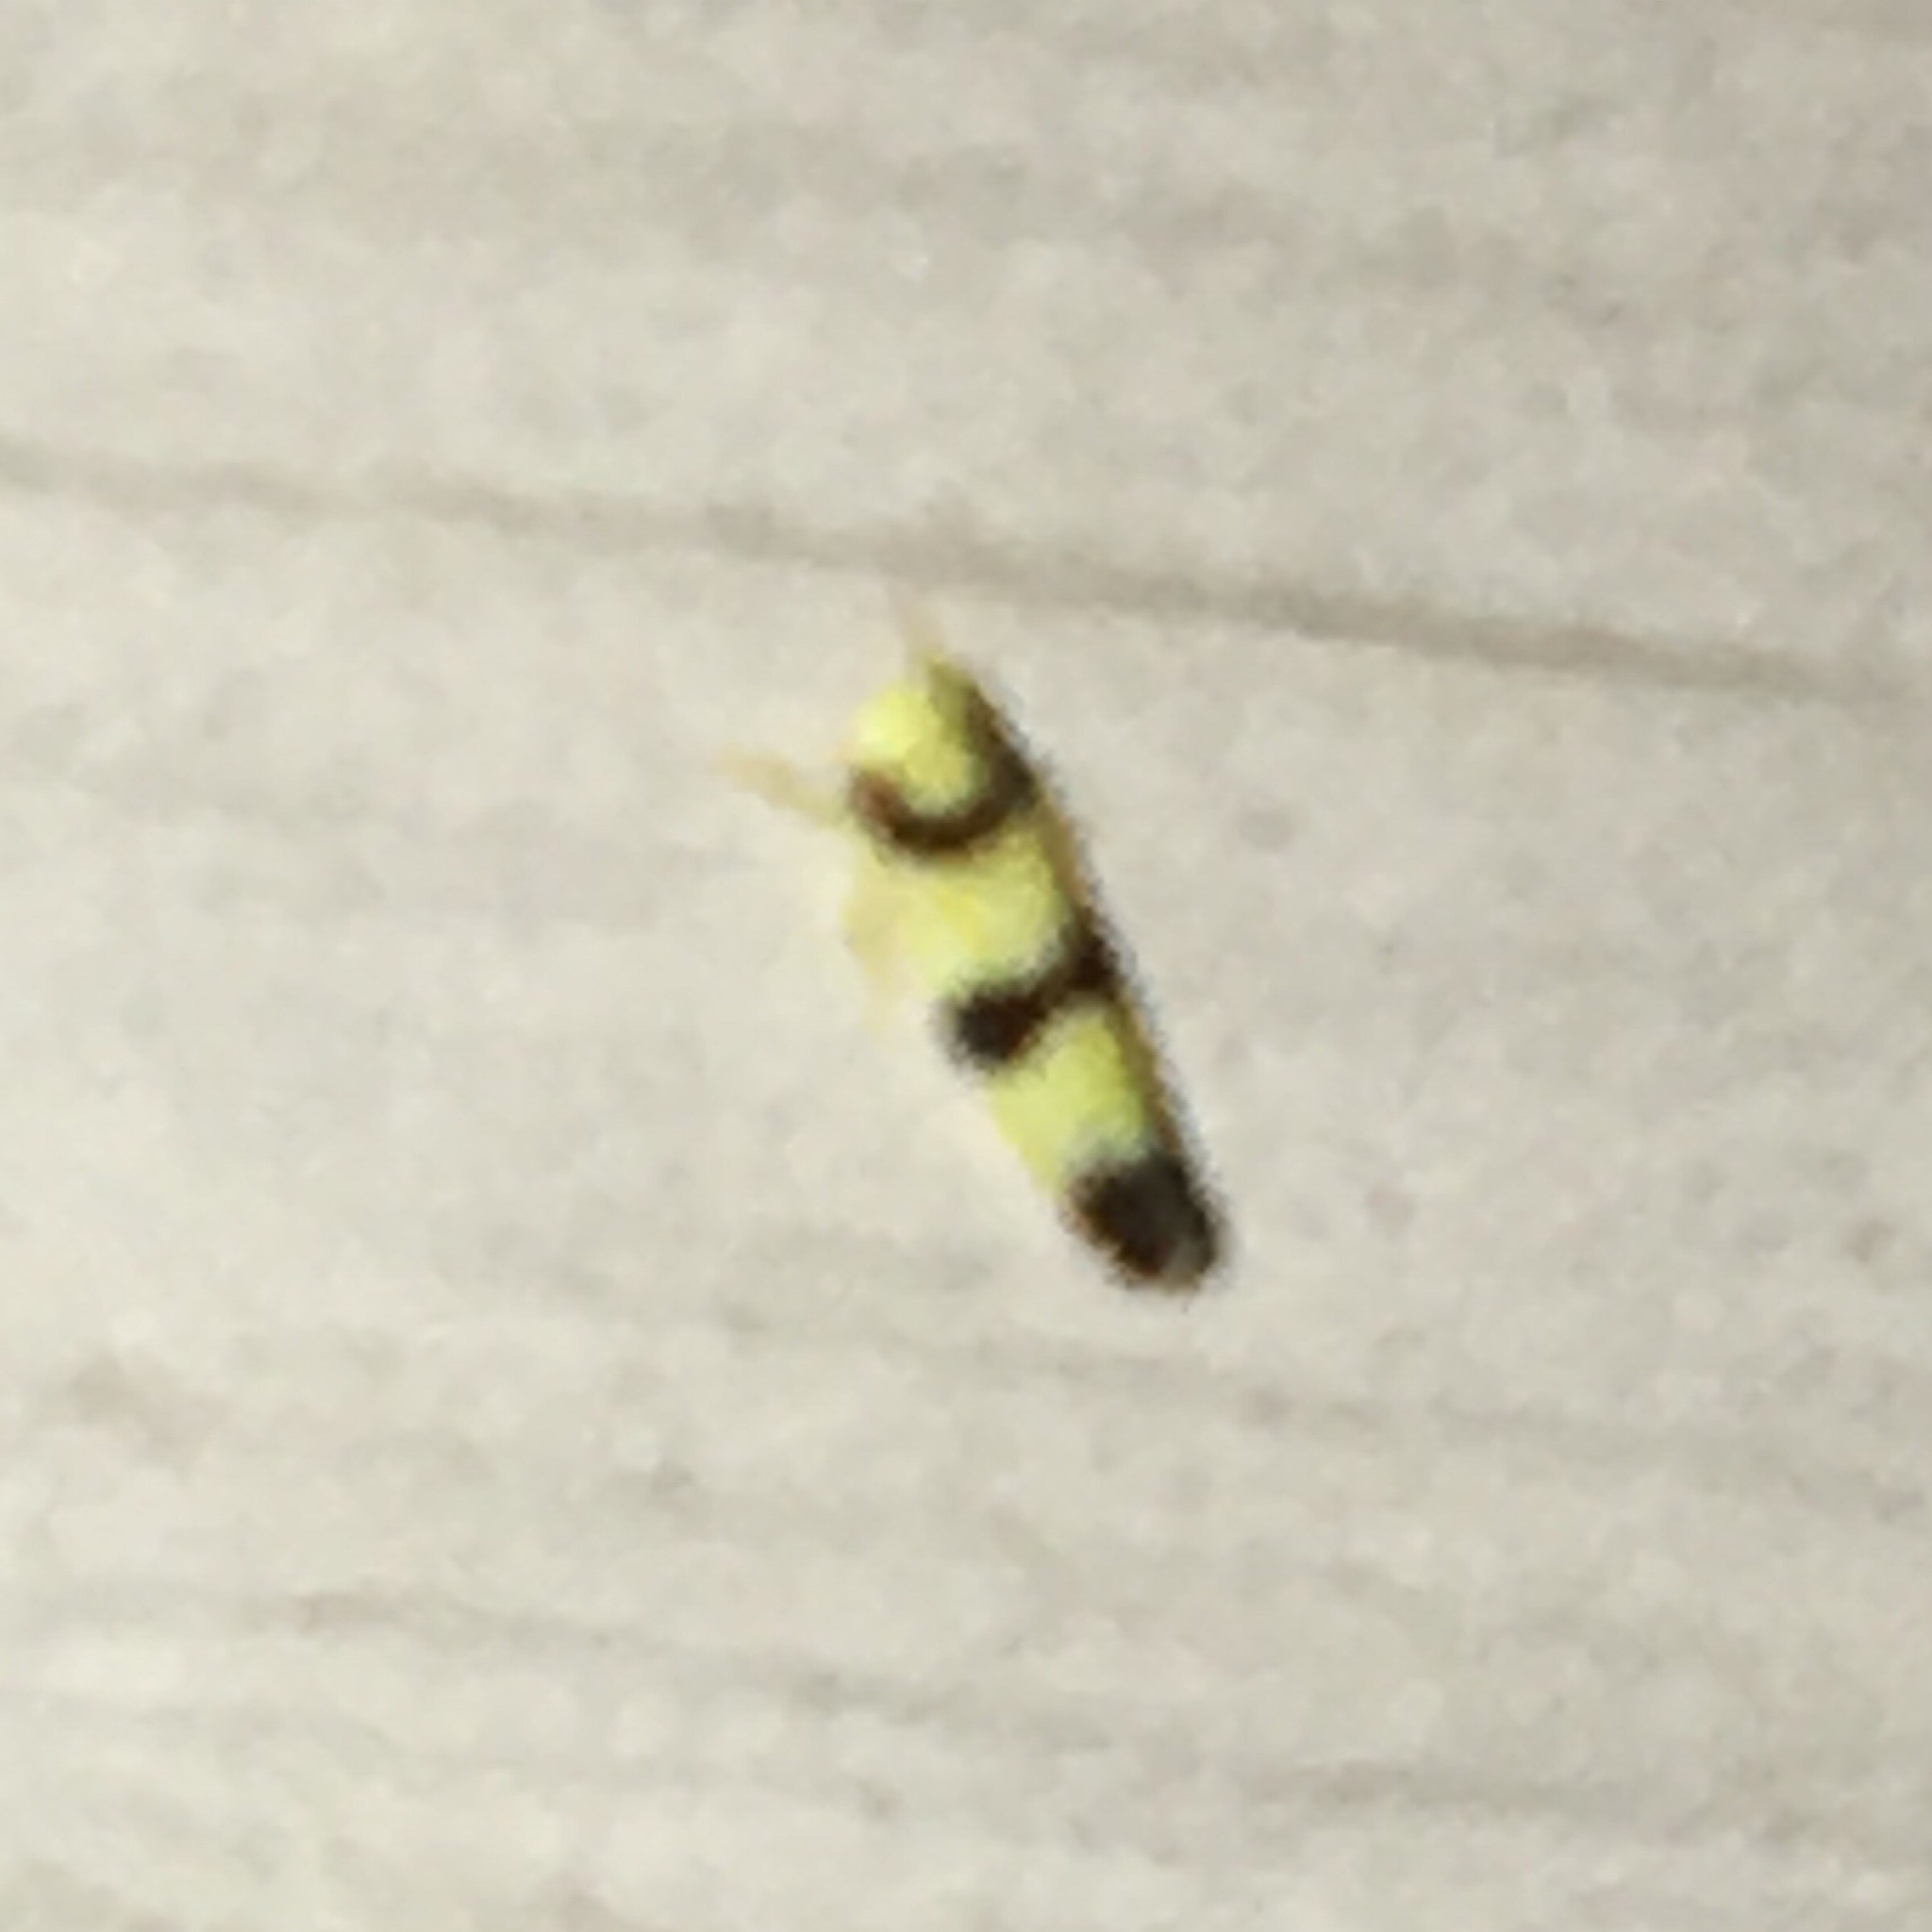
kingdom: Animalia
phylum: Arthropoda
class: Insecta
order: Hemiptera
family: Cicadellidae
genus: Erythroneura
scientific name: Erythroneura calycula
